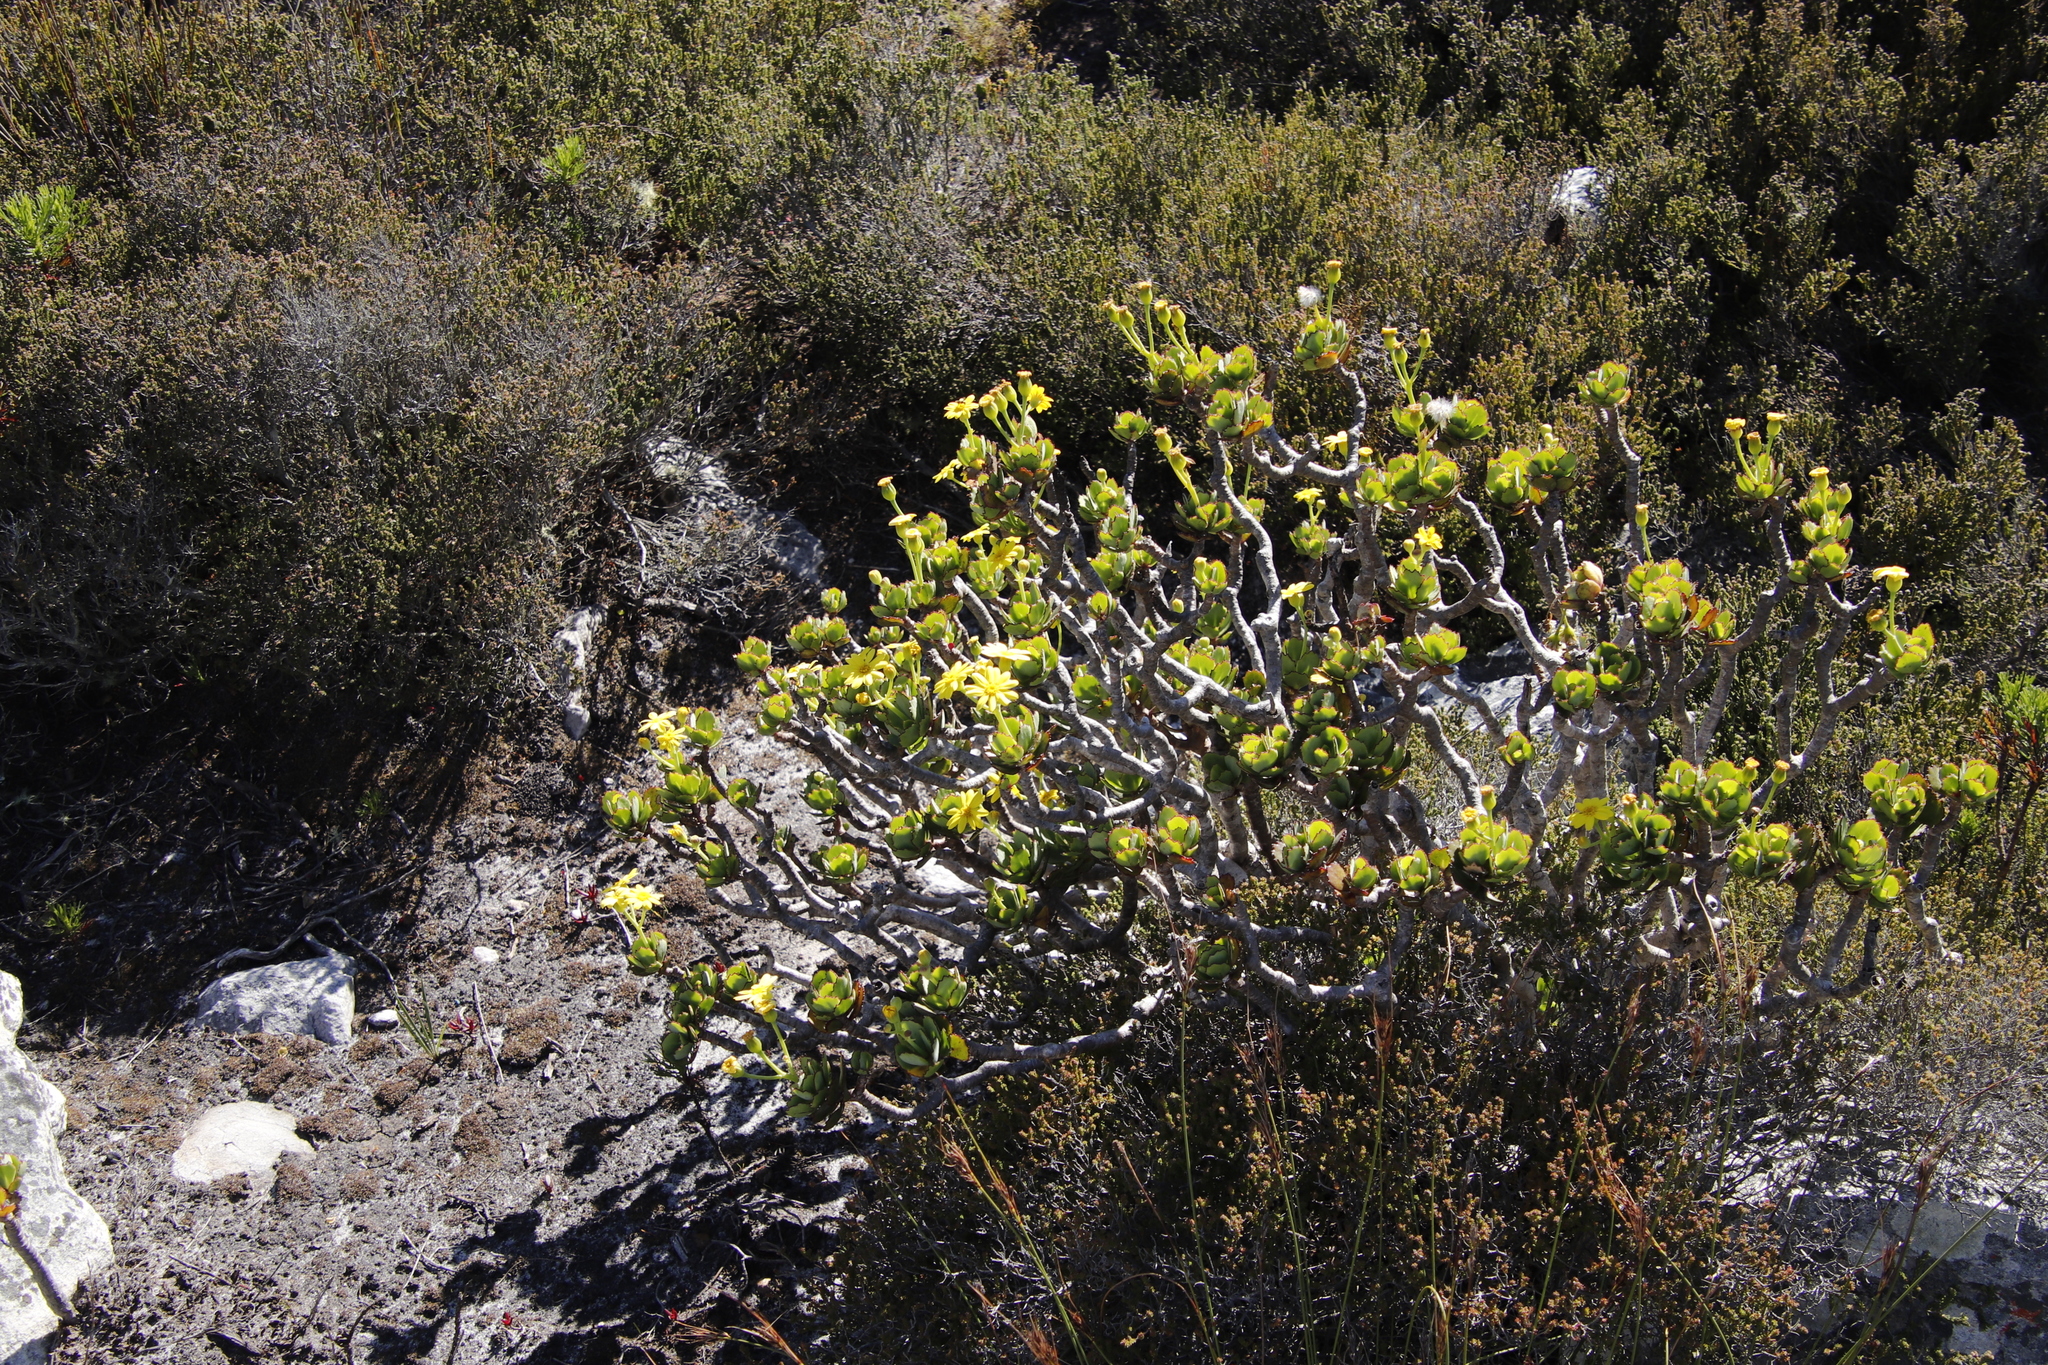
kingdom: Plantae
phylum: Tracheophyta
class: Magnoliopsida
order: Asterales
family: Asteraceae
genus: Othonna
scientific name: Othonna dentata
